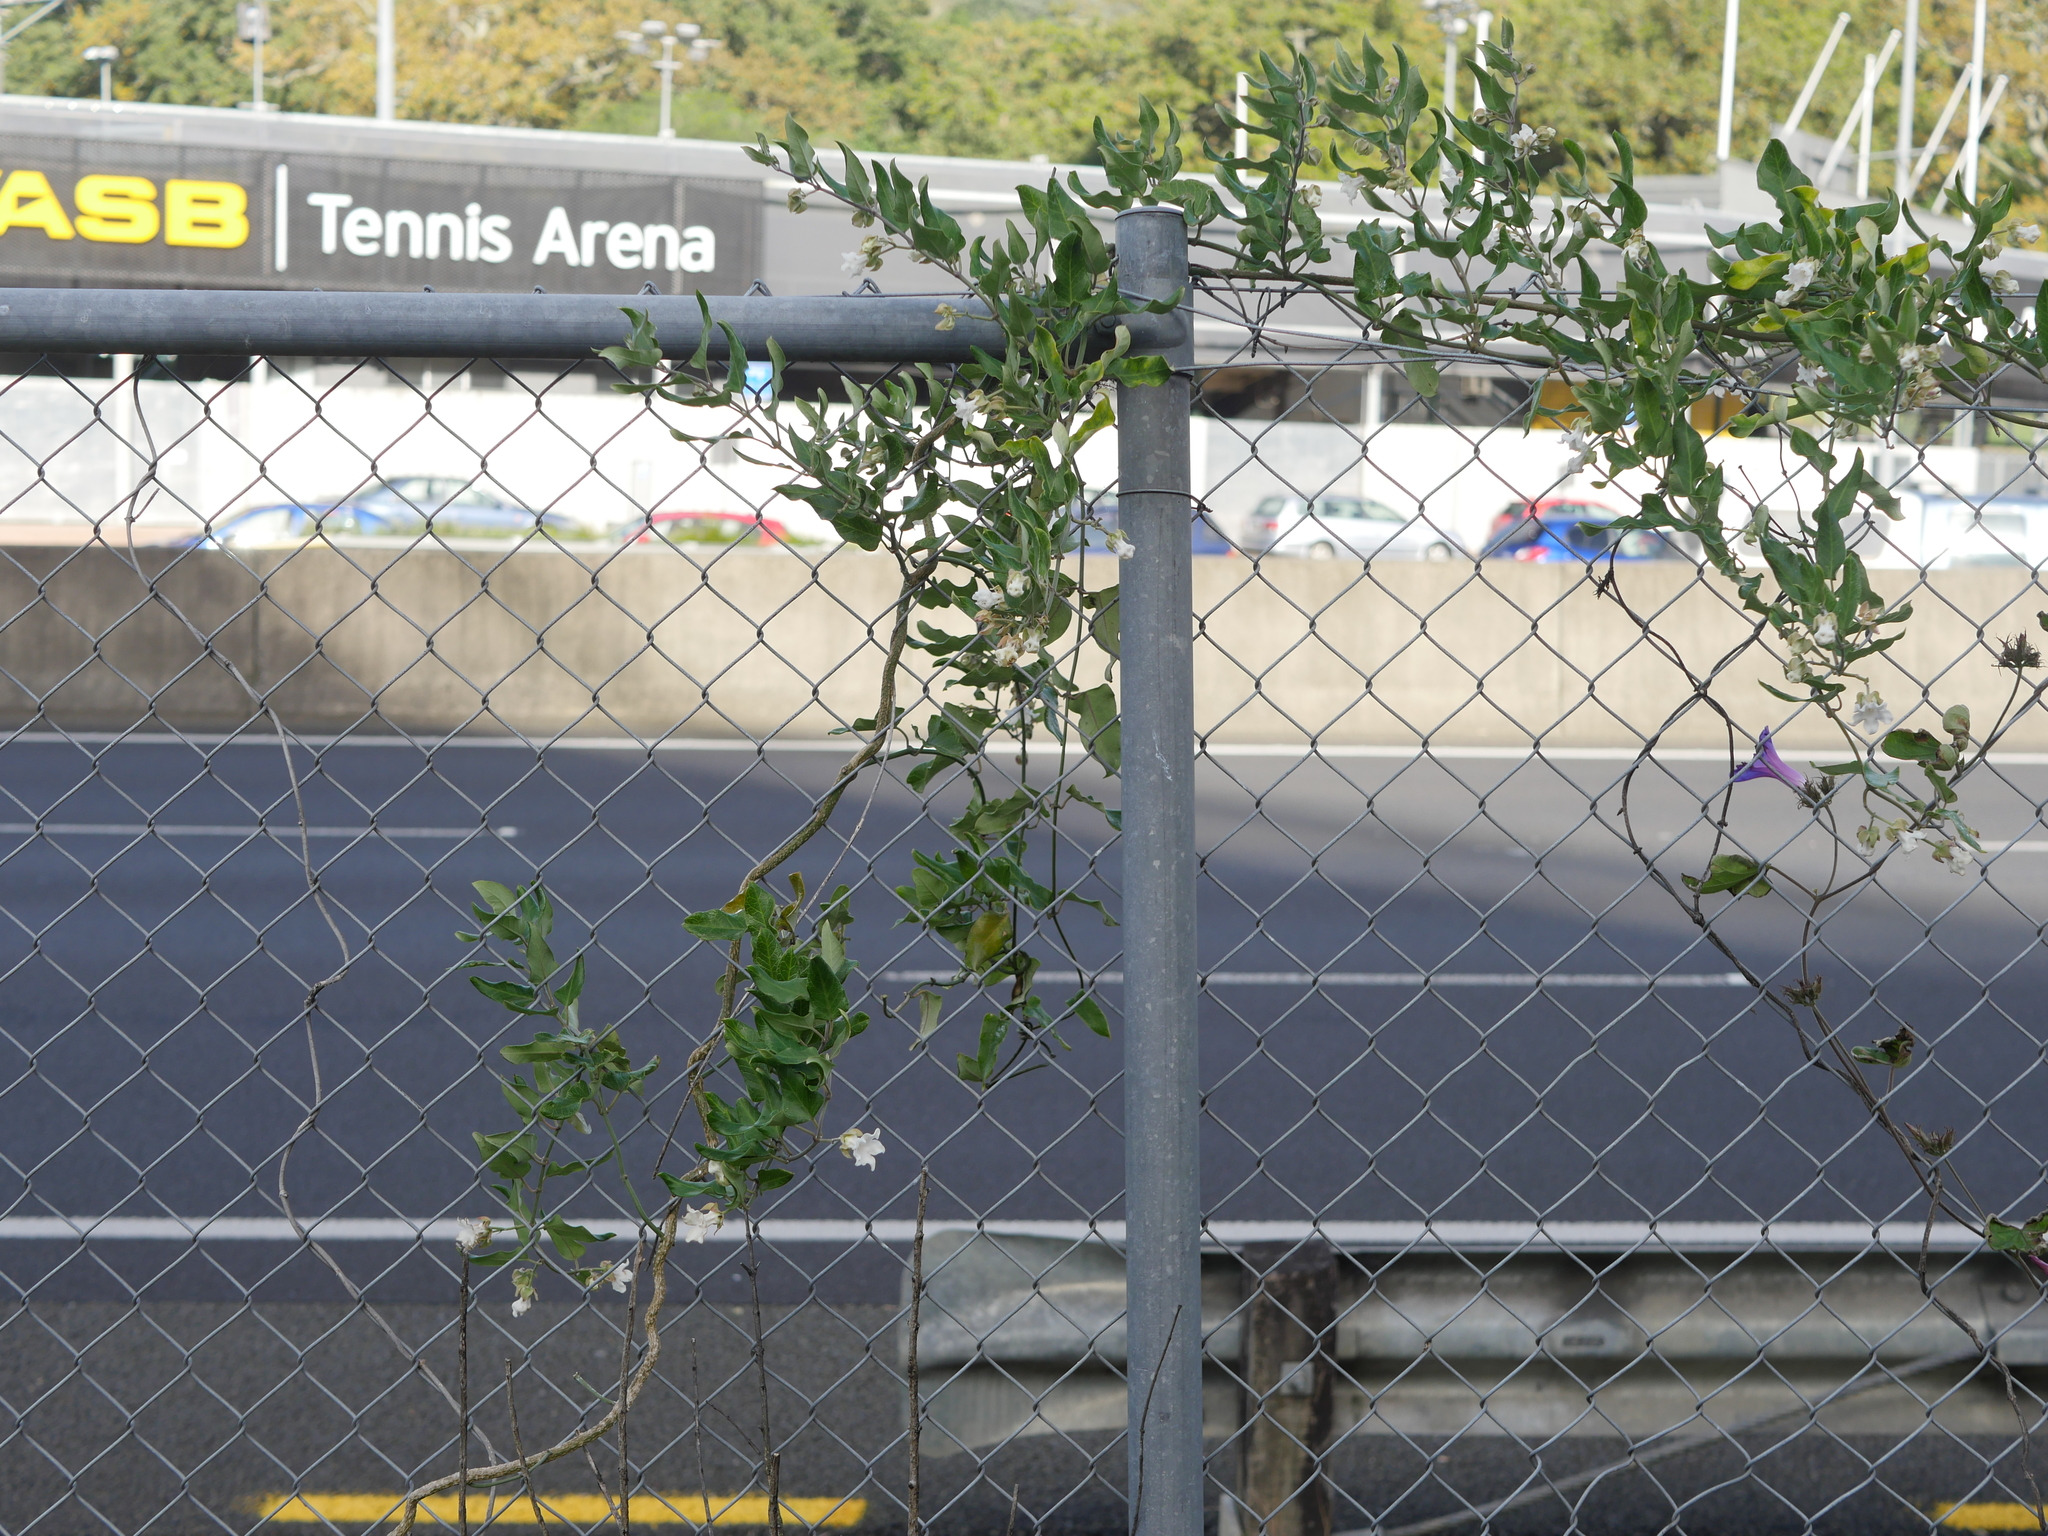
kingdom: Plantae
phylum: Tracheophyta
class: Magnoliopsida
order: Gentianales
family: Apocynaceae
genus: Araujia
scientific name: Araujia sericifera
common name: White bladderflower
